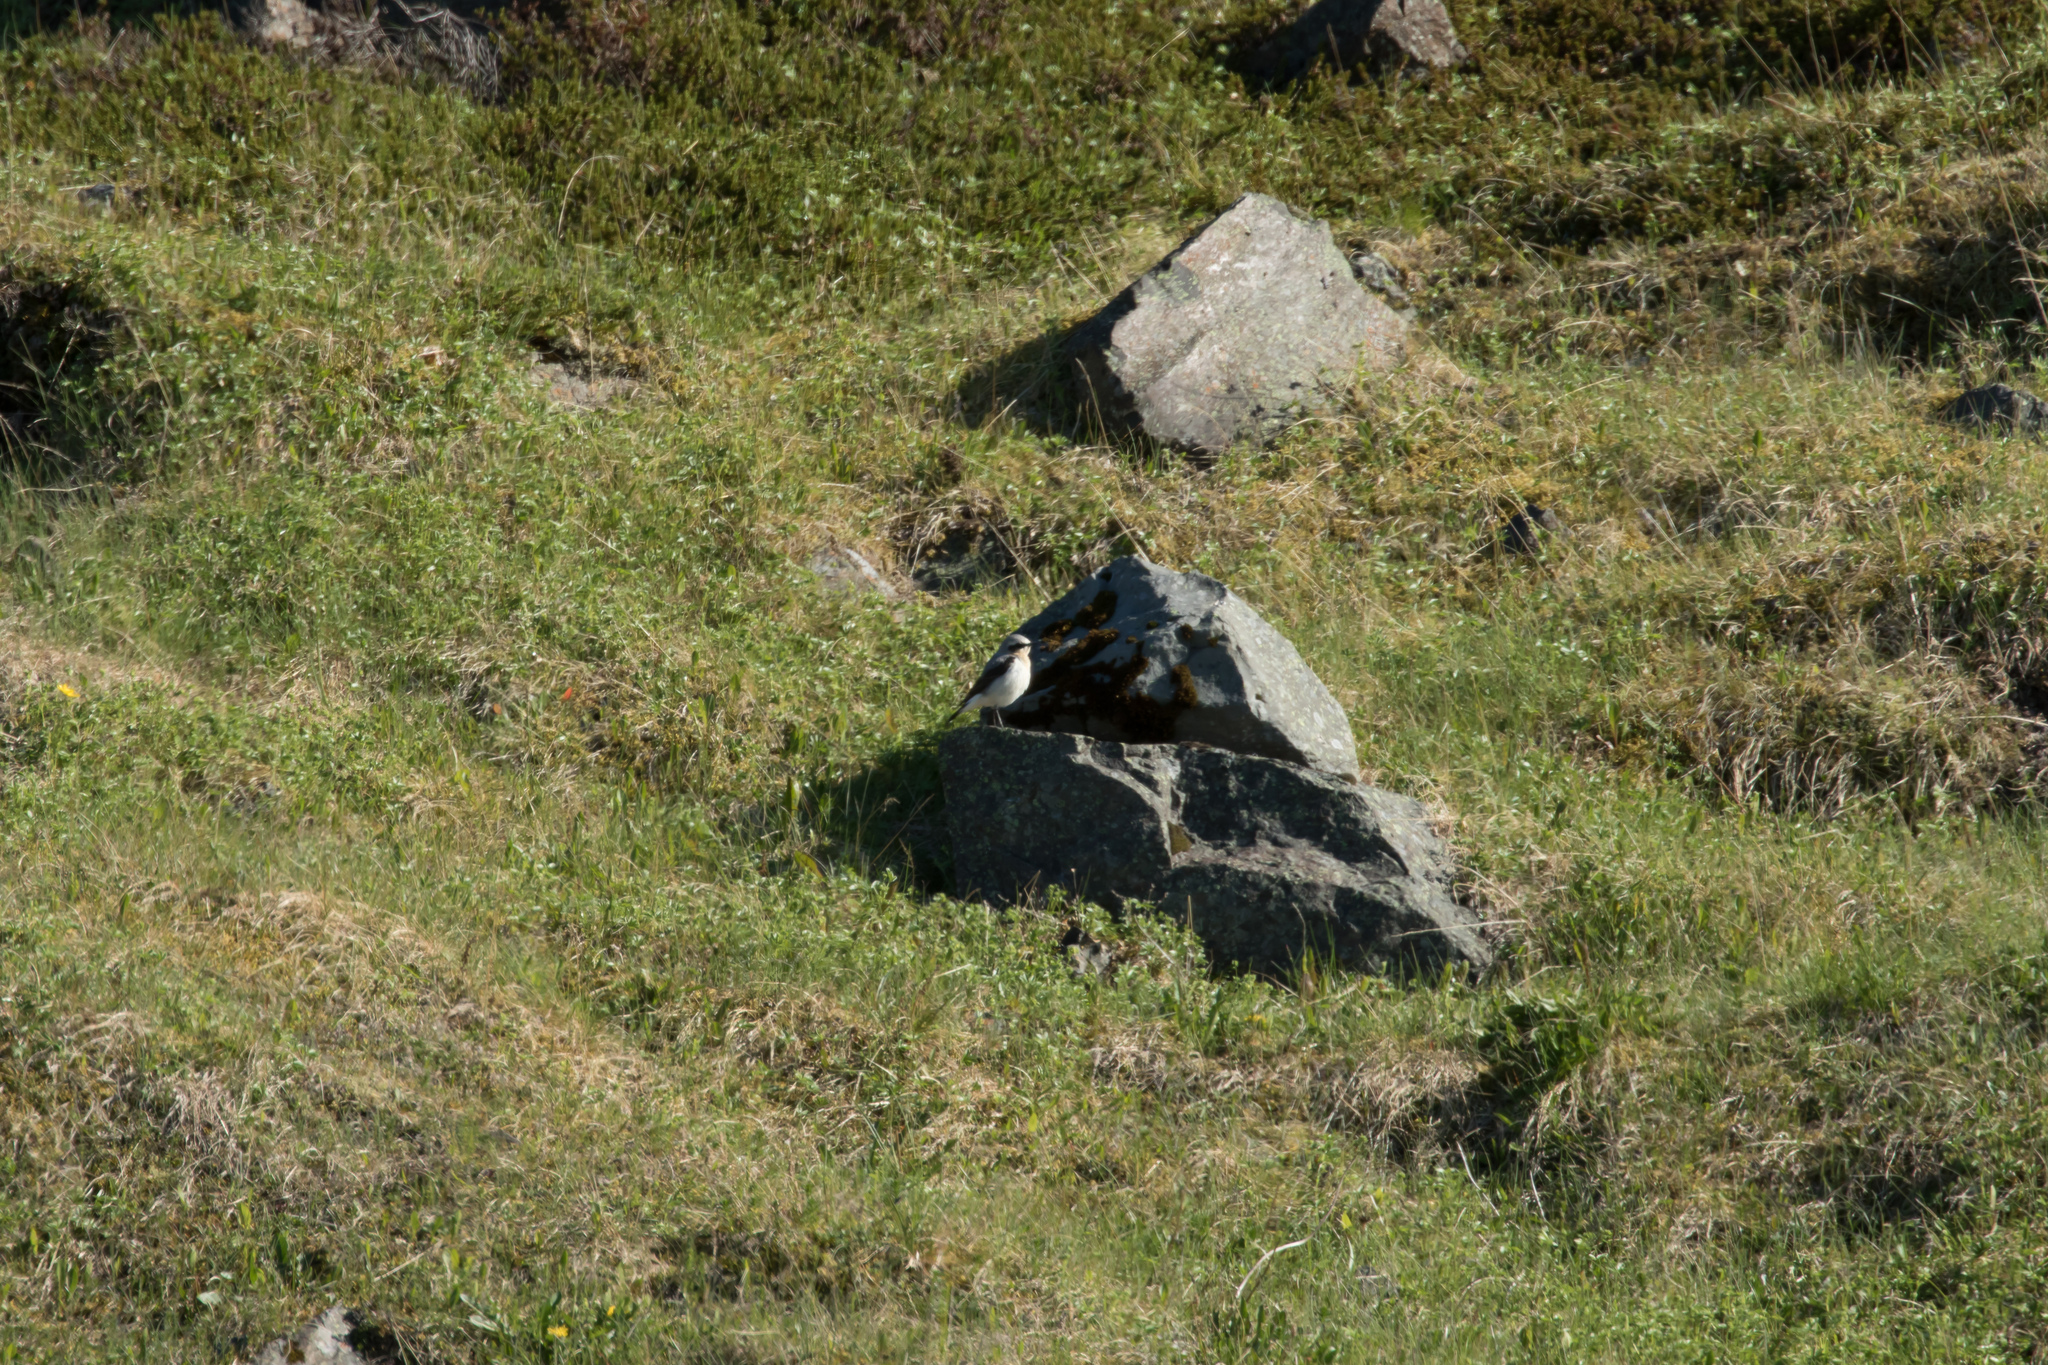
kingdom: Animalia
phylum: Chordata
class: Aves
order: Passeriformes
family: Muscicapidae
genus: Oenanthe
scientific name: Oenanthe oenanthe
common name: Northern wheatear
